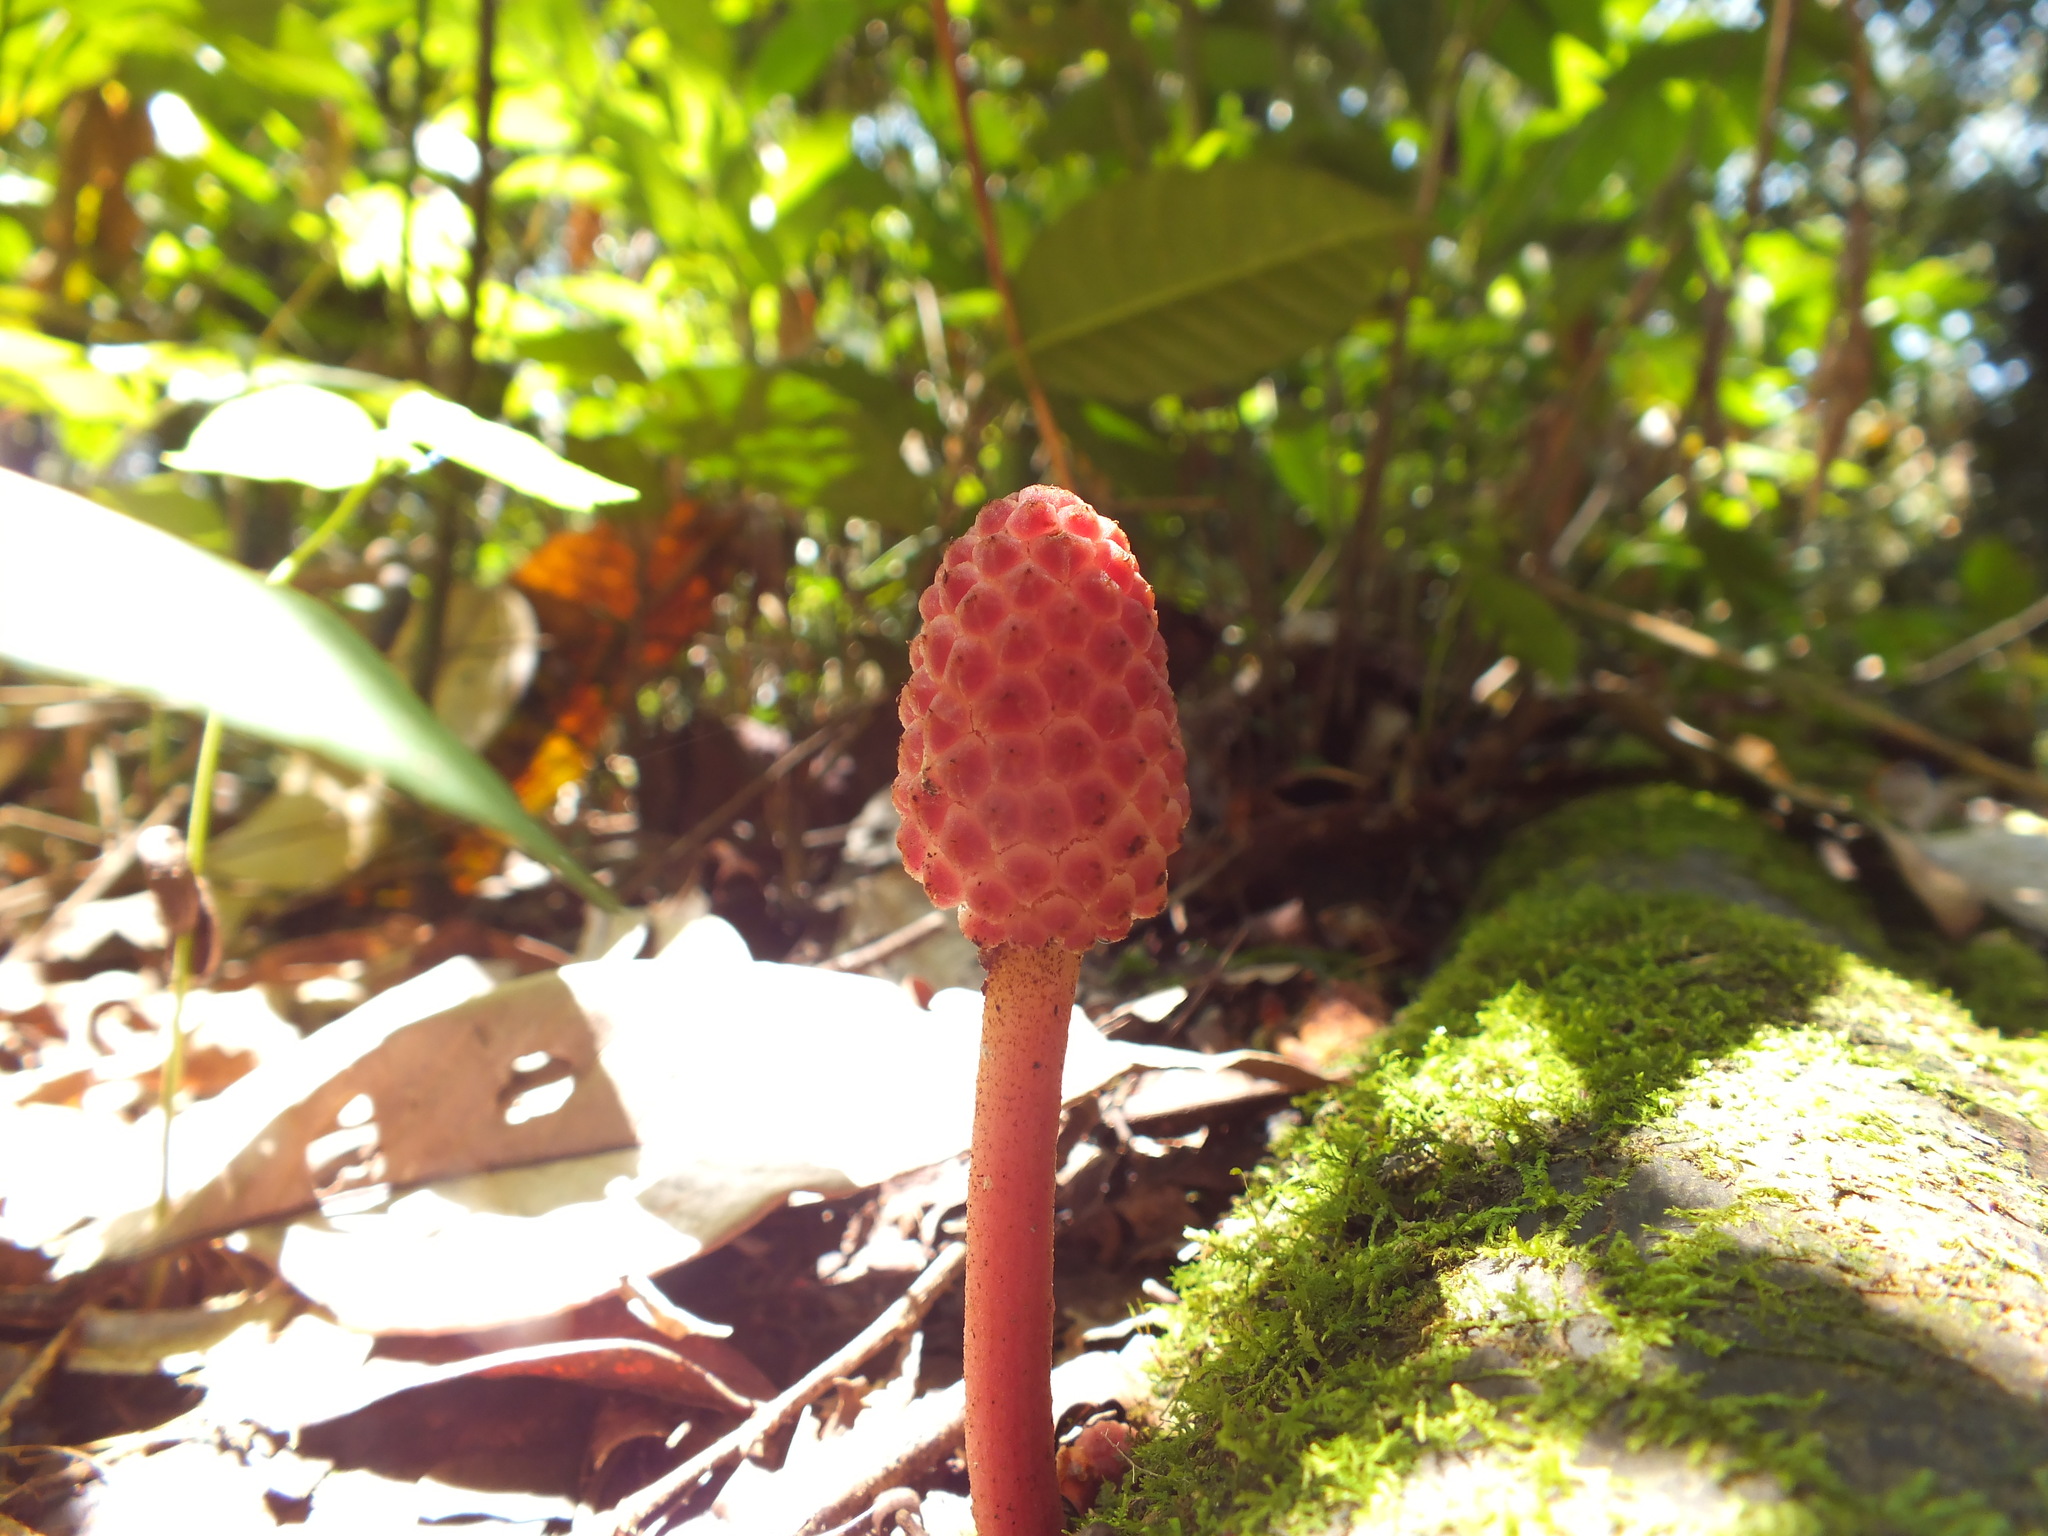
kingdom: Plantae
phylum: Tracheophyta
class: Magnoliopsida
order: Santalales
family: Balanophoraceae
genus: Helosis
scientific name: Helosis cayennensis
